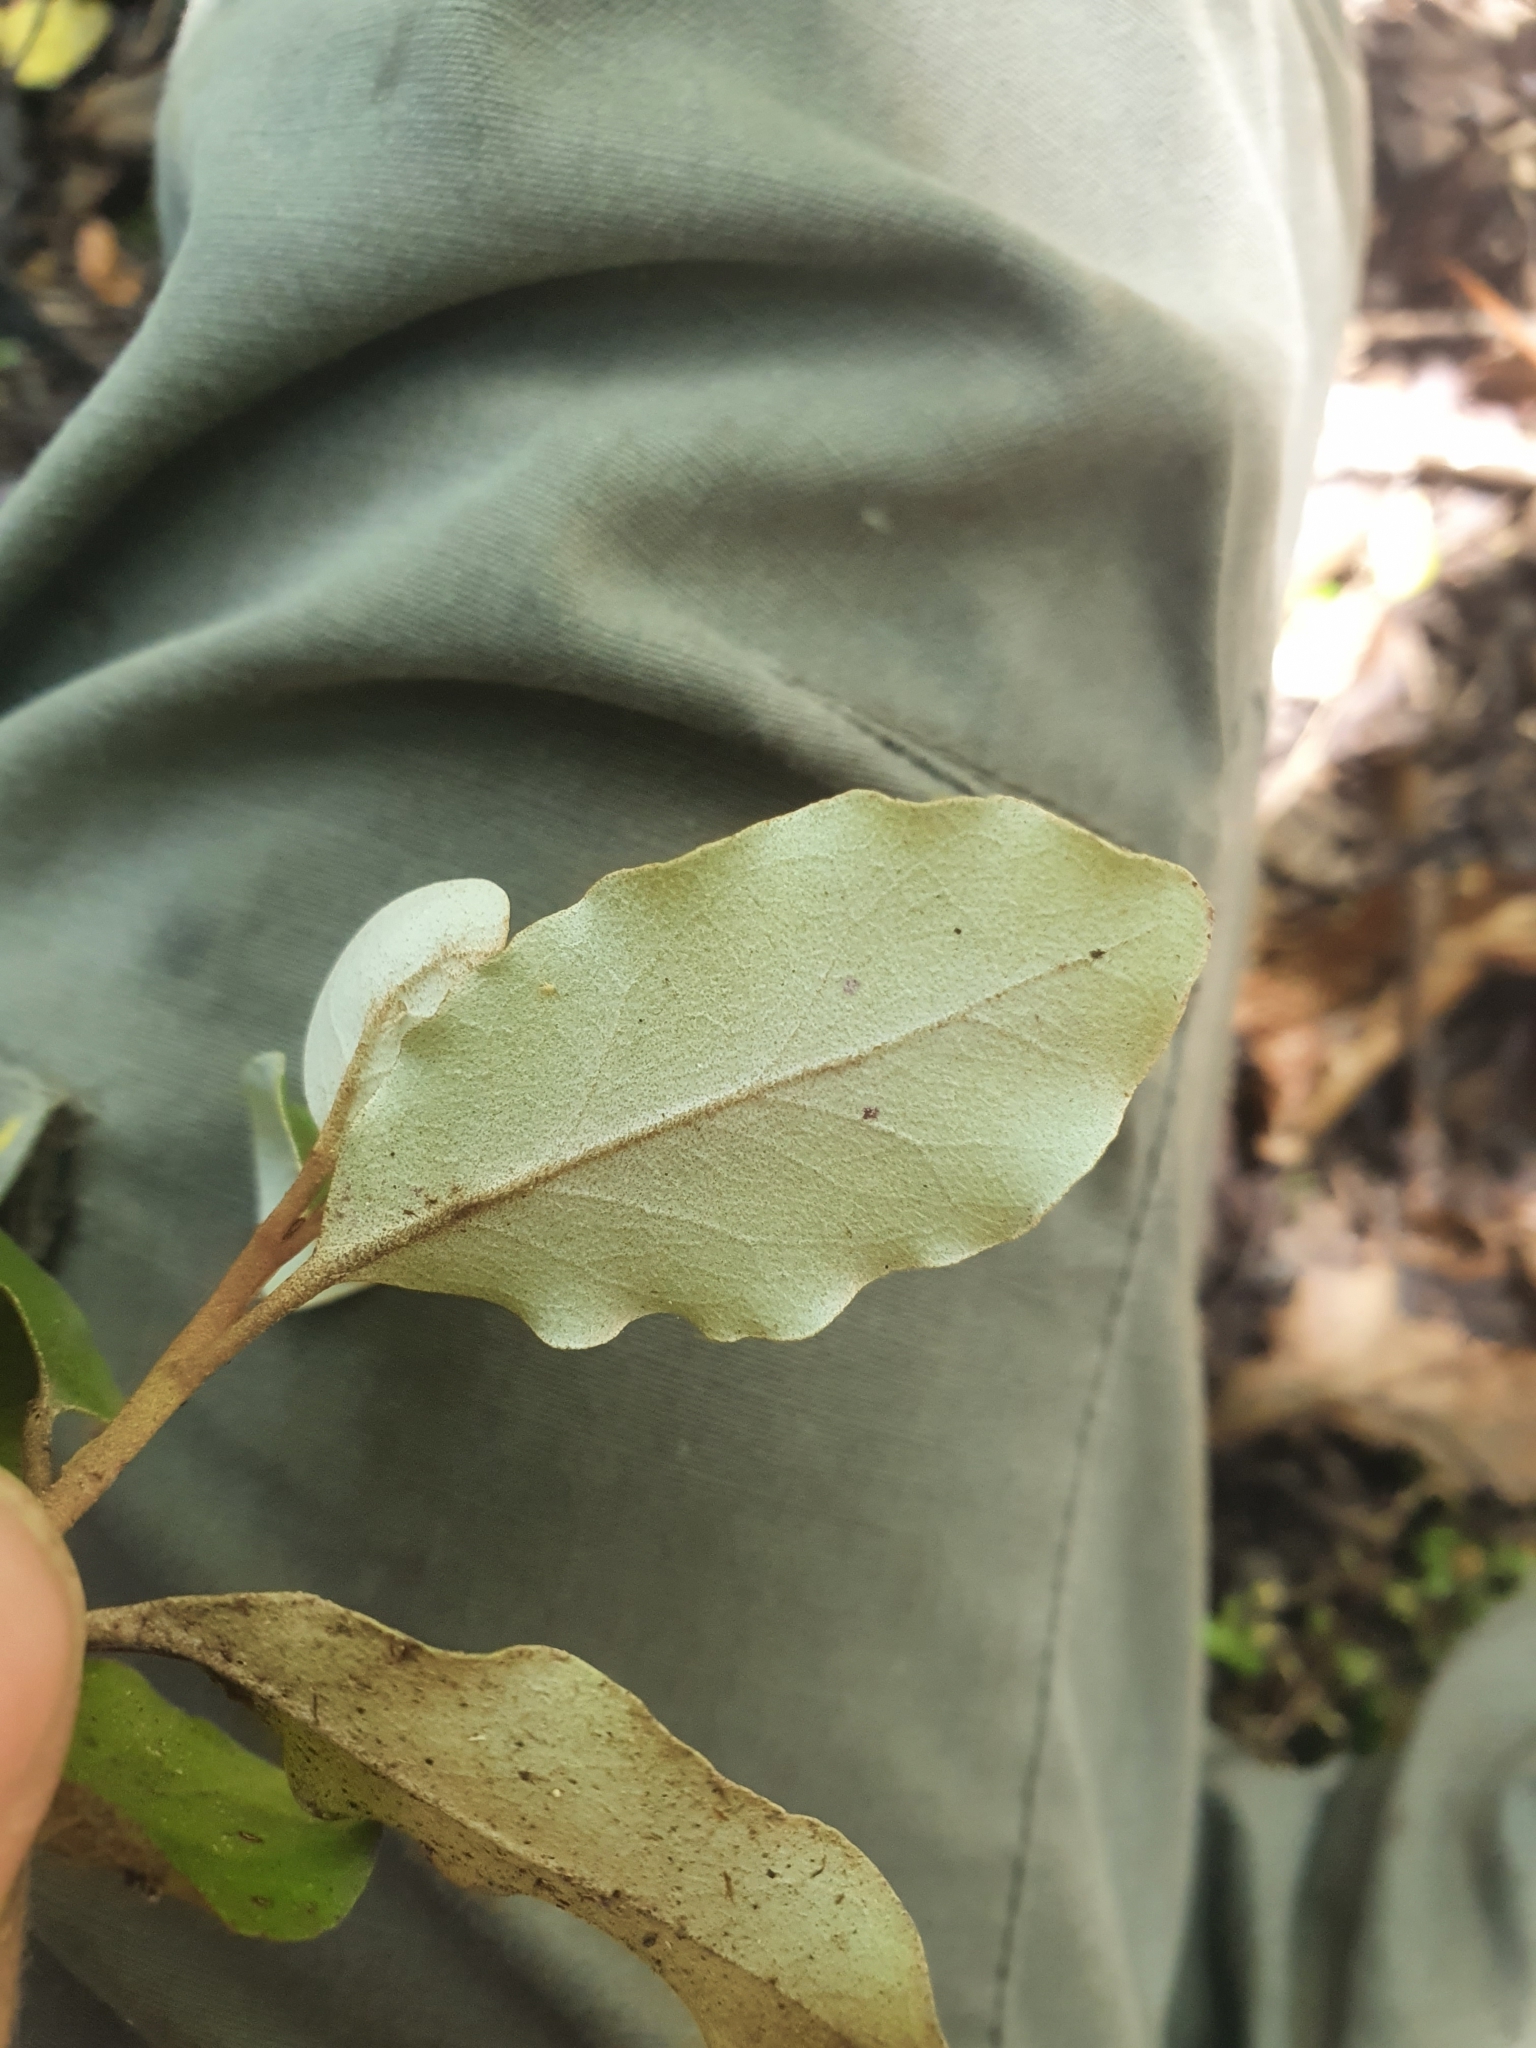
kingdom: Plantae
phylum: Tracheophyta
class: Magnoliopsida
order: Asterales
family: Asteraceae
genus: Olearia
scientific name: Olearia paniculata
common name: Akiraho
